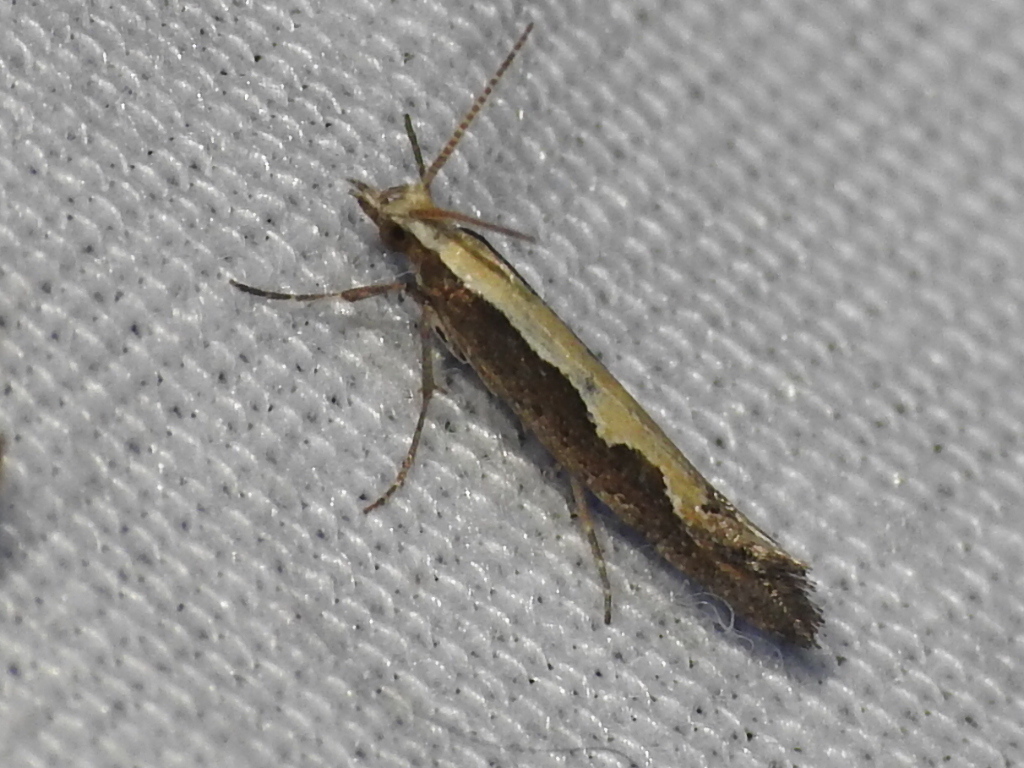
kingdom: Animalia
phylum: Arthropoda
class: Insecta
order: Lepidoptera
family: Plutellidae
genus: Plutella
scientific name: Plutella xylostella
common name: Diamond-back moth
